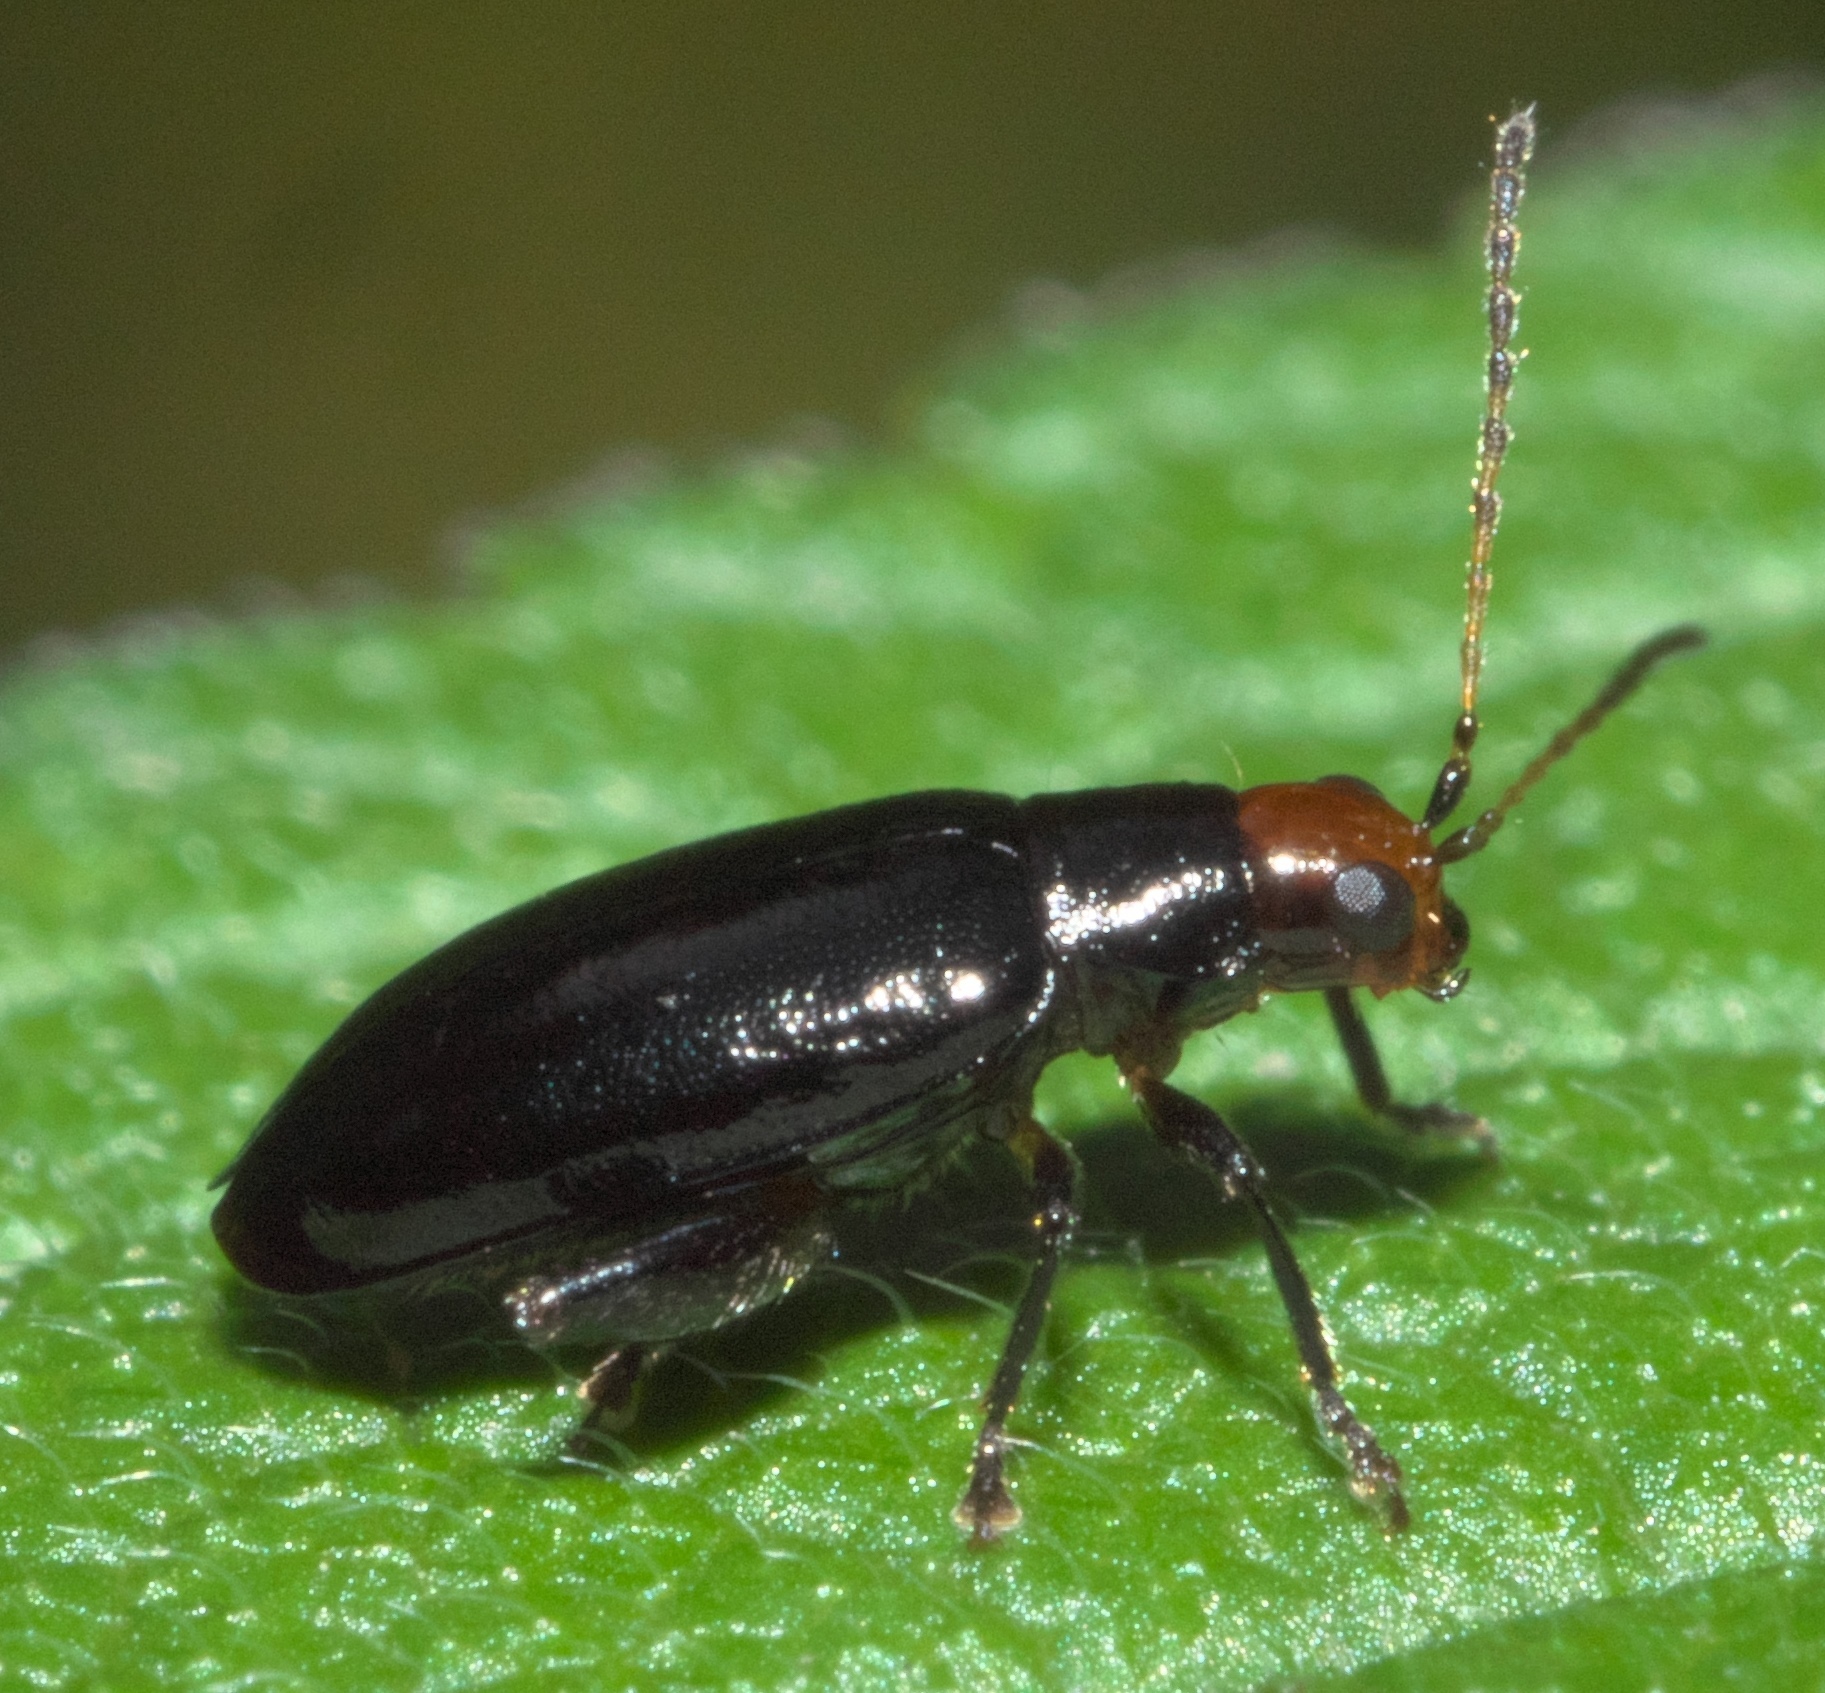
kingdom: Animalia
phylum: Arthropoda
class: Insecta
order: Coleoptera
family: Chrysomelidae
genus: Systena
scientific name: Systena frontalis
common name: Red-headed flea beetle
